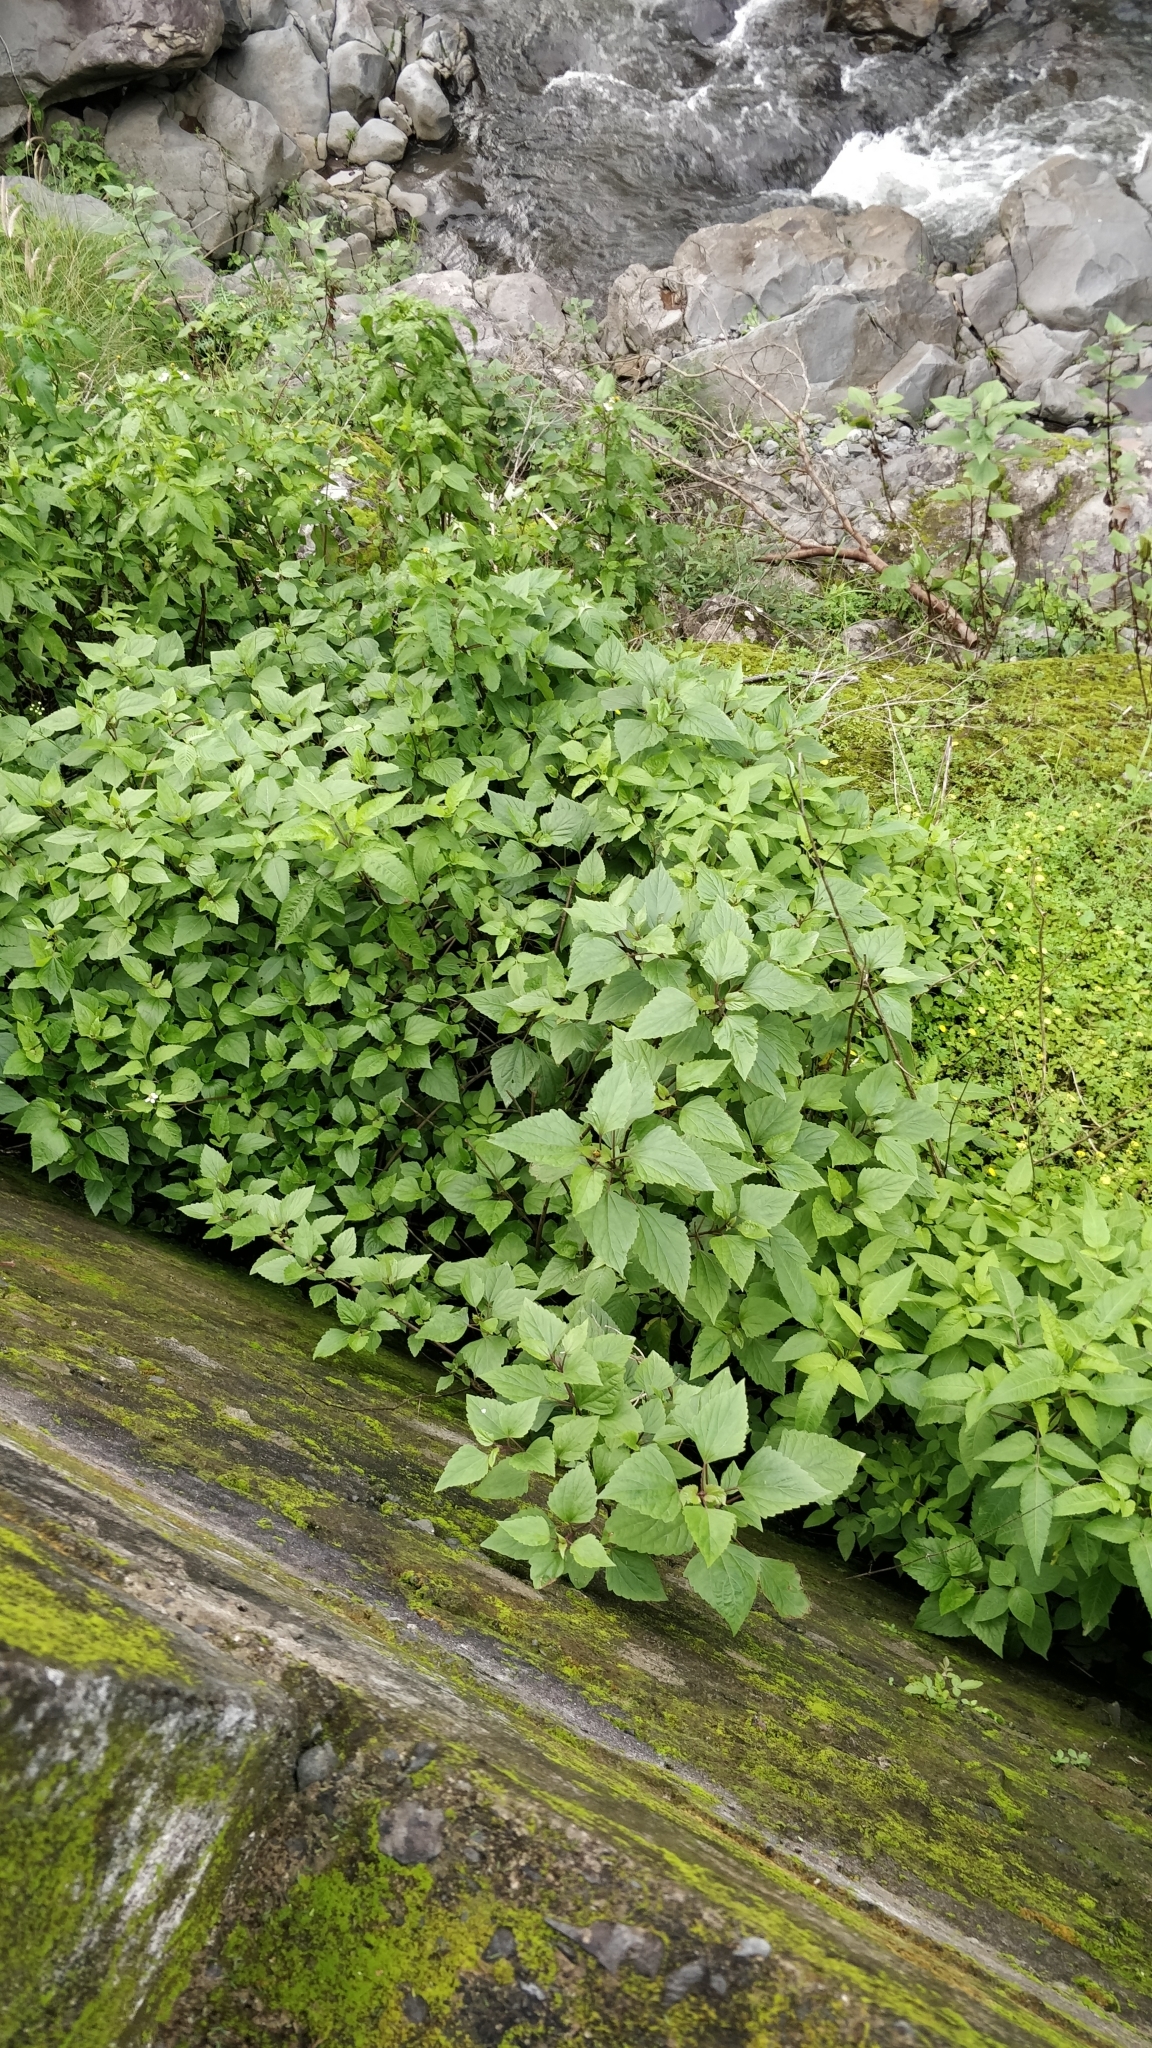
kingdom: Plantae
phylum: Tracheophyta
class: Magnoliopsida
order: Asterales
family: Asteraceae
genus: Ageratina
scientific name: Ageratina adenophora
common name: Sticky snakeroot
